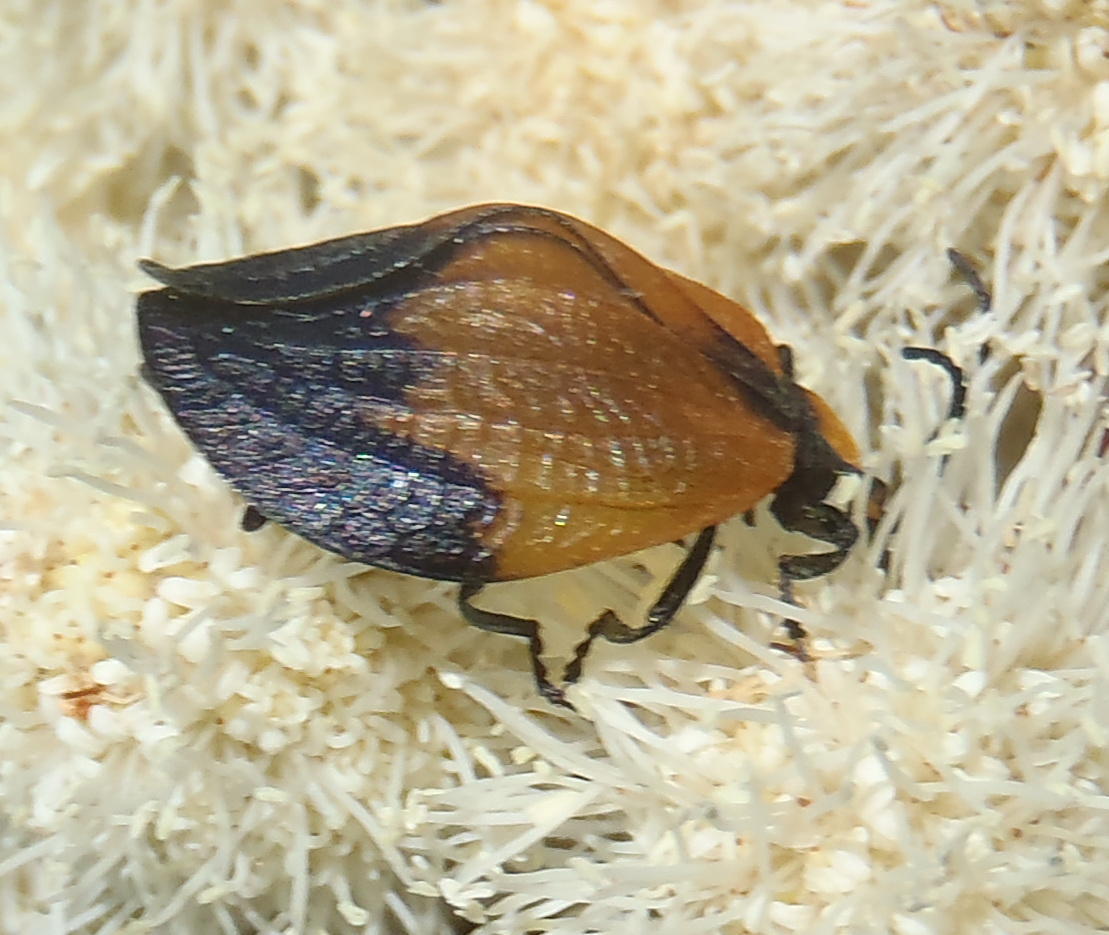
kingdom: Animalia
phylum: Arthropoda
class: Insecta
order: Coleoptera
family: Lycidae
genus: Lycus
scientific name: Lycus
